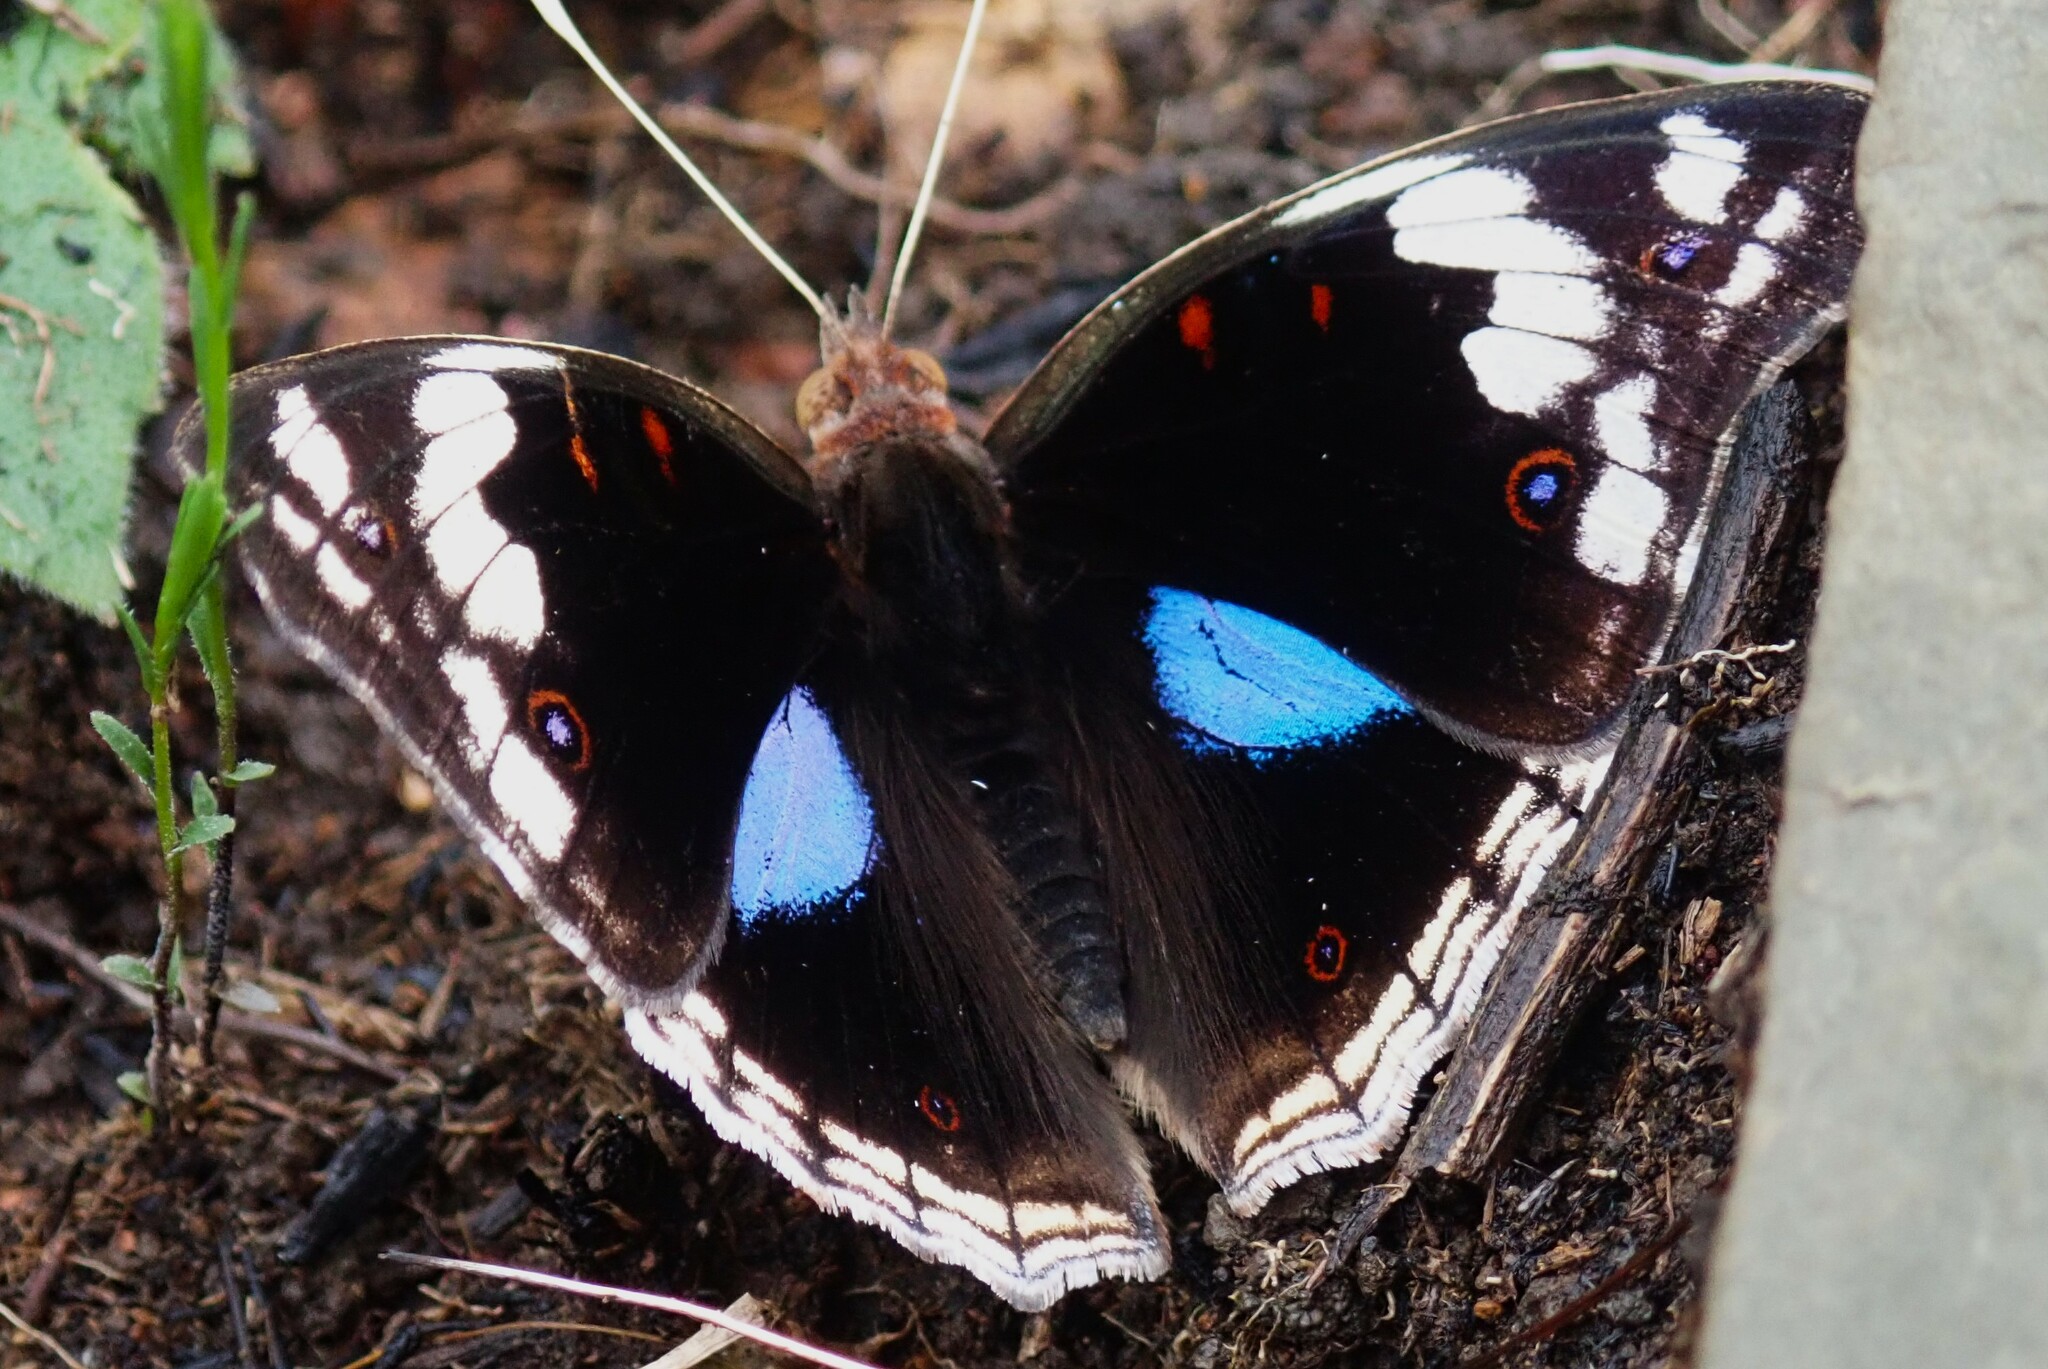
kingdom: Animalia
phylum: Arthropoda
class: Insecta
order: Lepidoptera
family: Nymphalidae
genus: Junonia
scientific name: Junonia oenone
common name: Dark blue pansy
